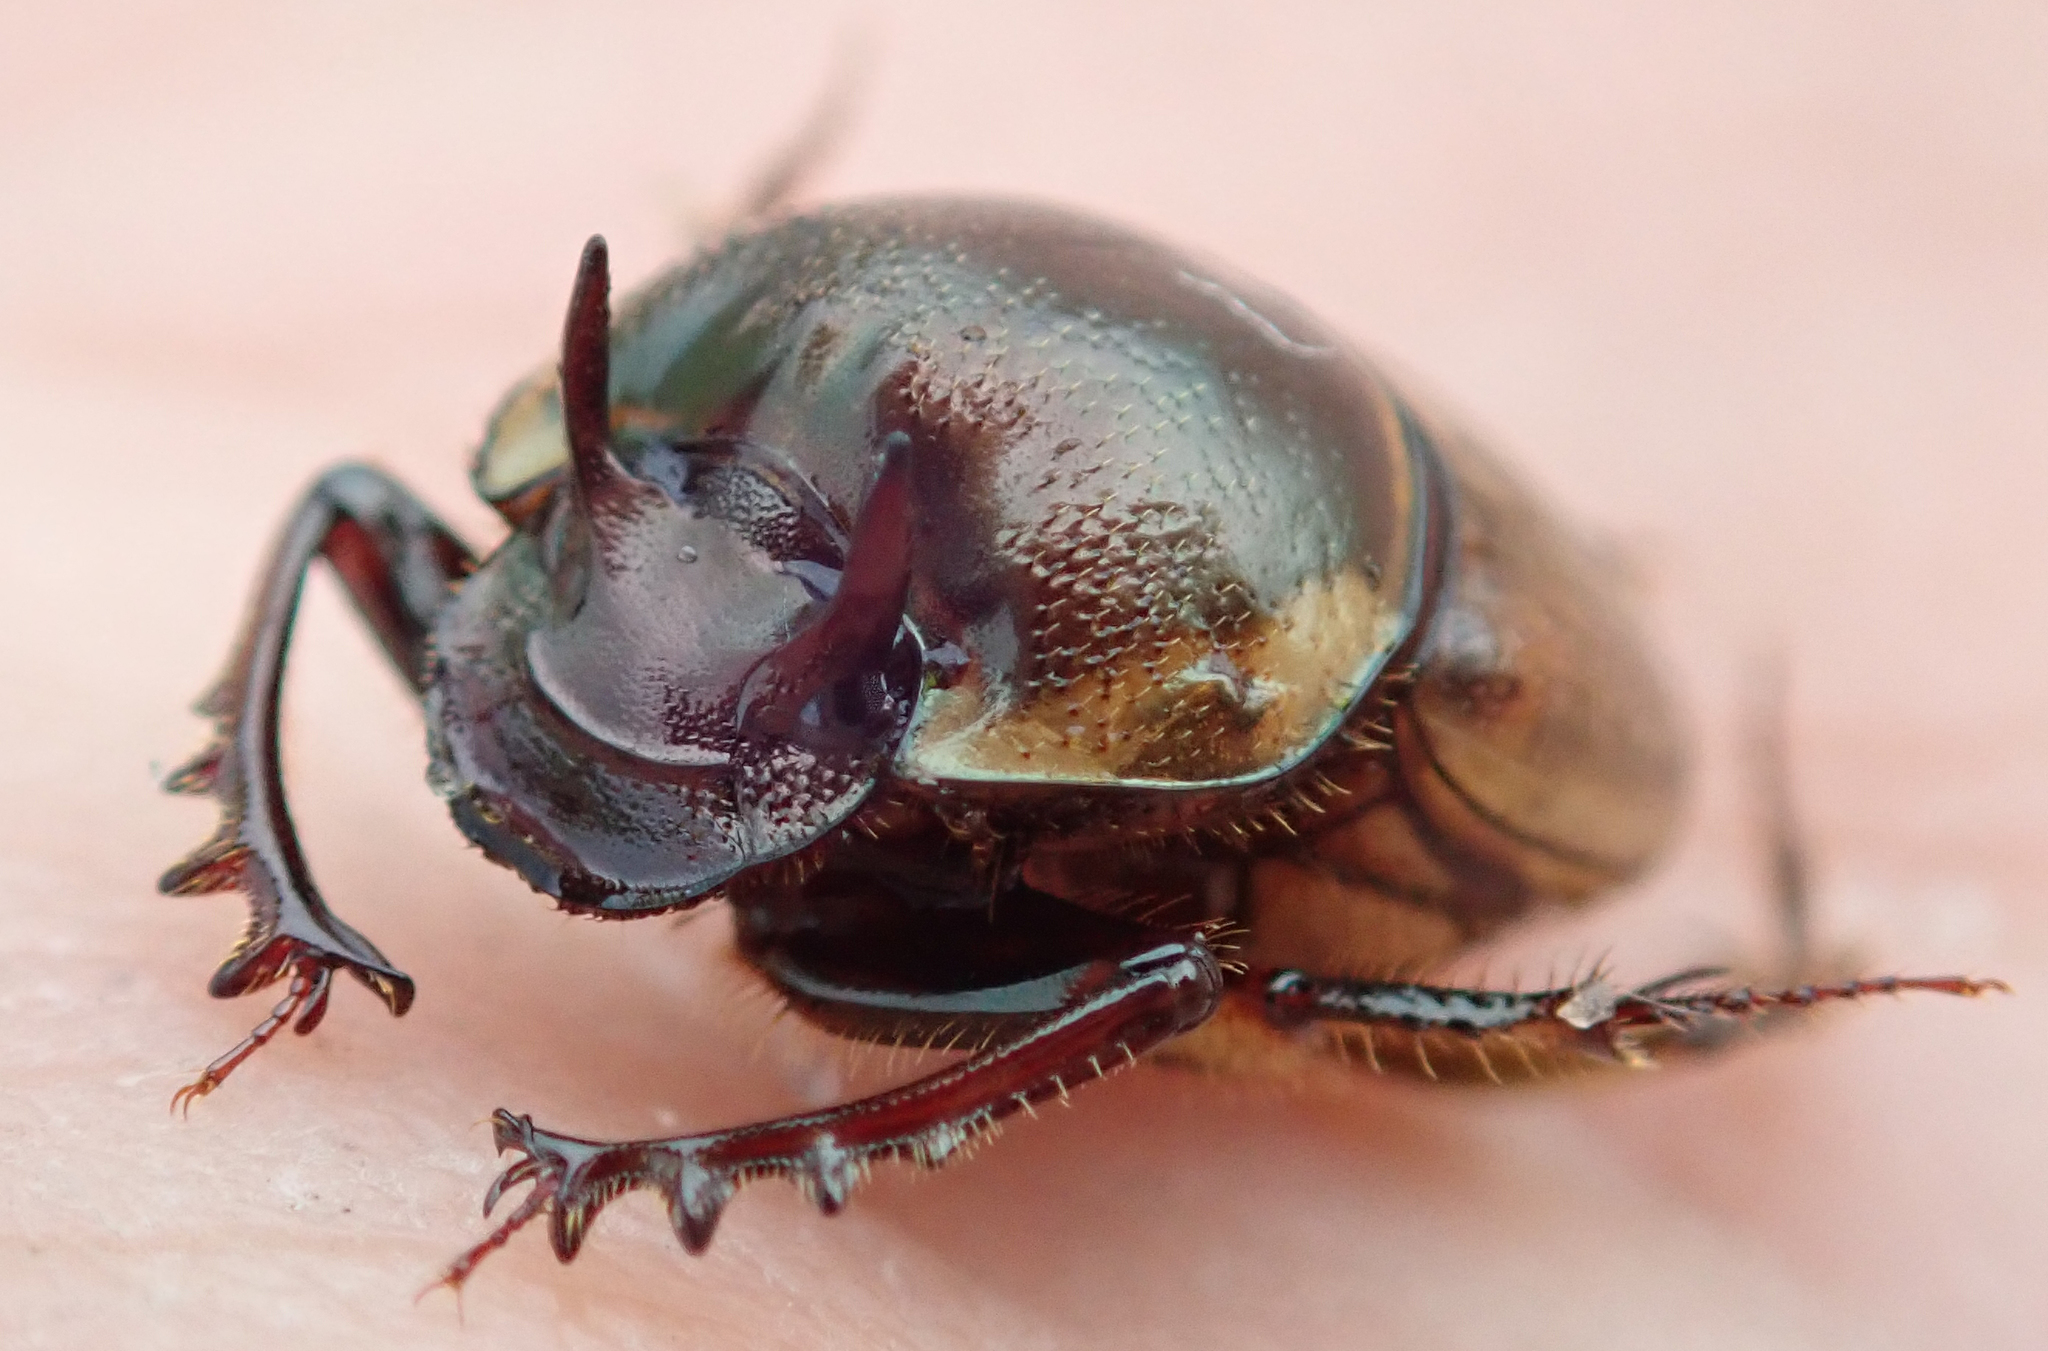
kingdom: Animalia
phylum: Arthropoda
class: Insecta
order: Coleoptera
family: Scarabaeidae
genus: Digitonthophagus
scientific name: Digitonthophagus gazella
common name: Brown dung beetle
